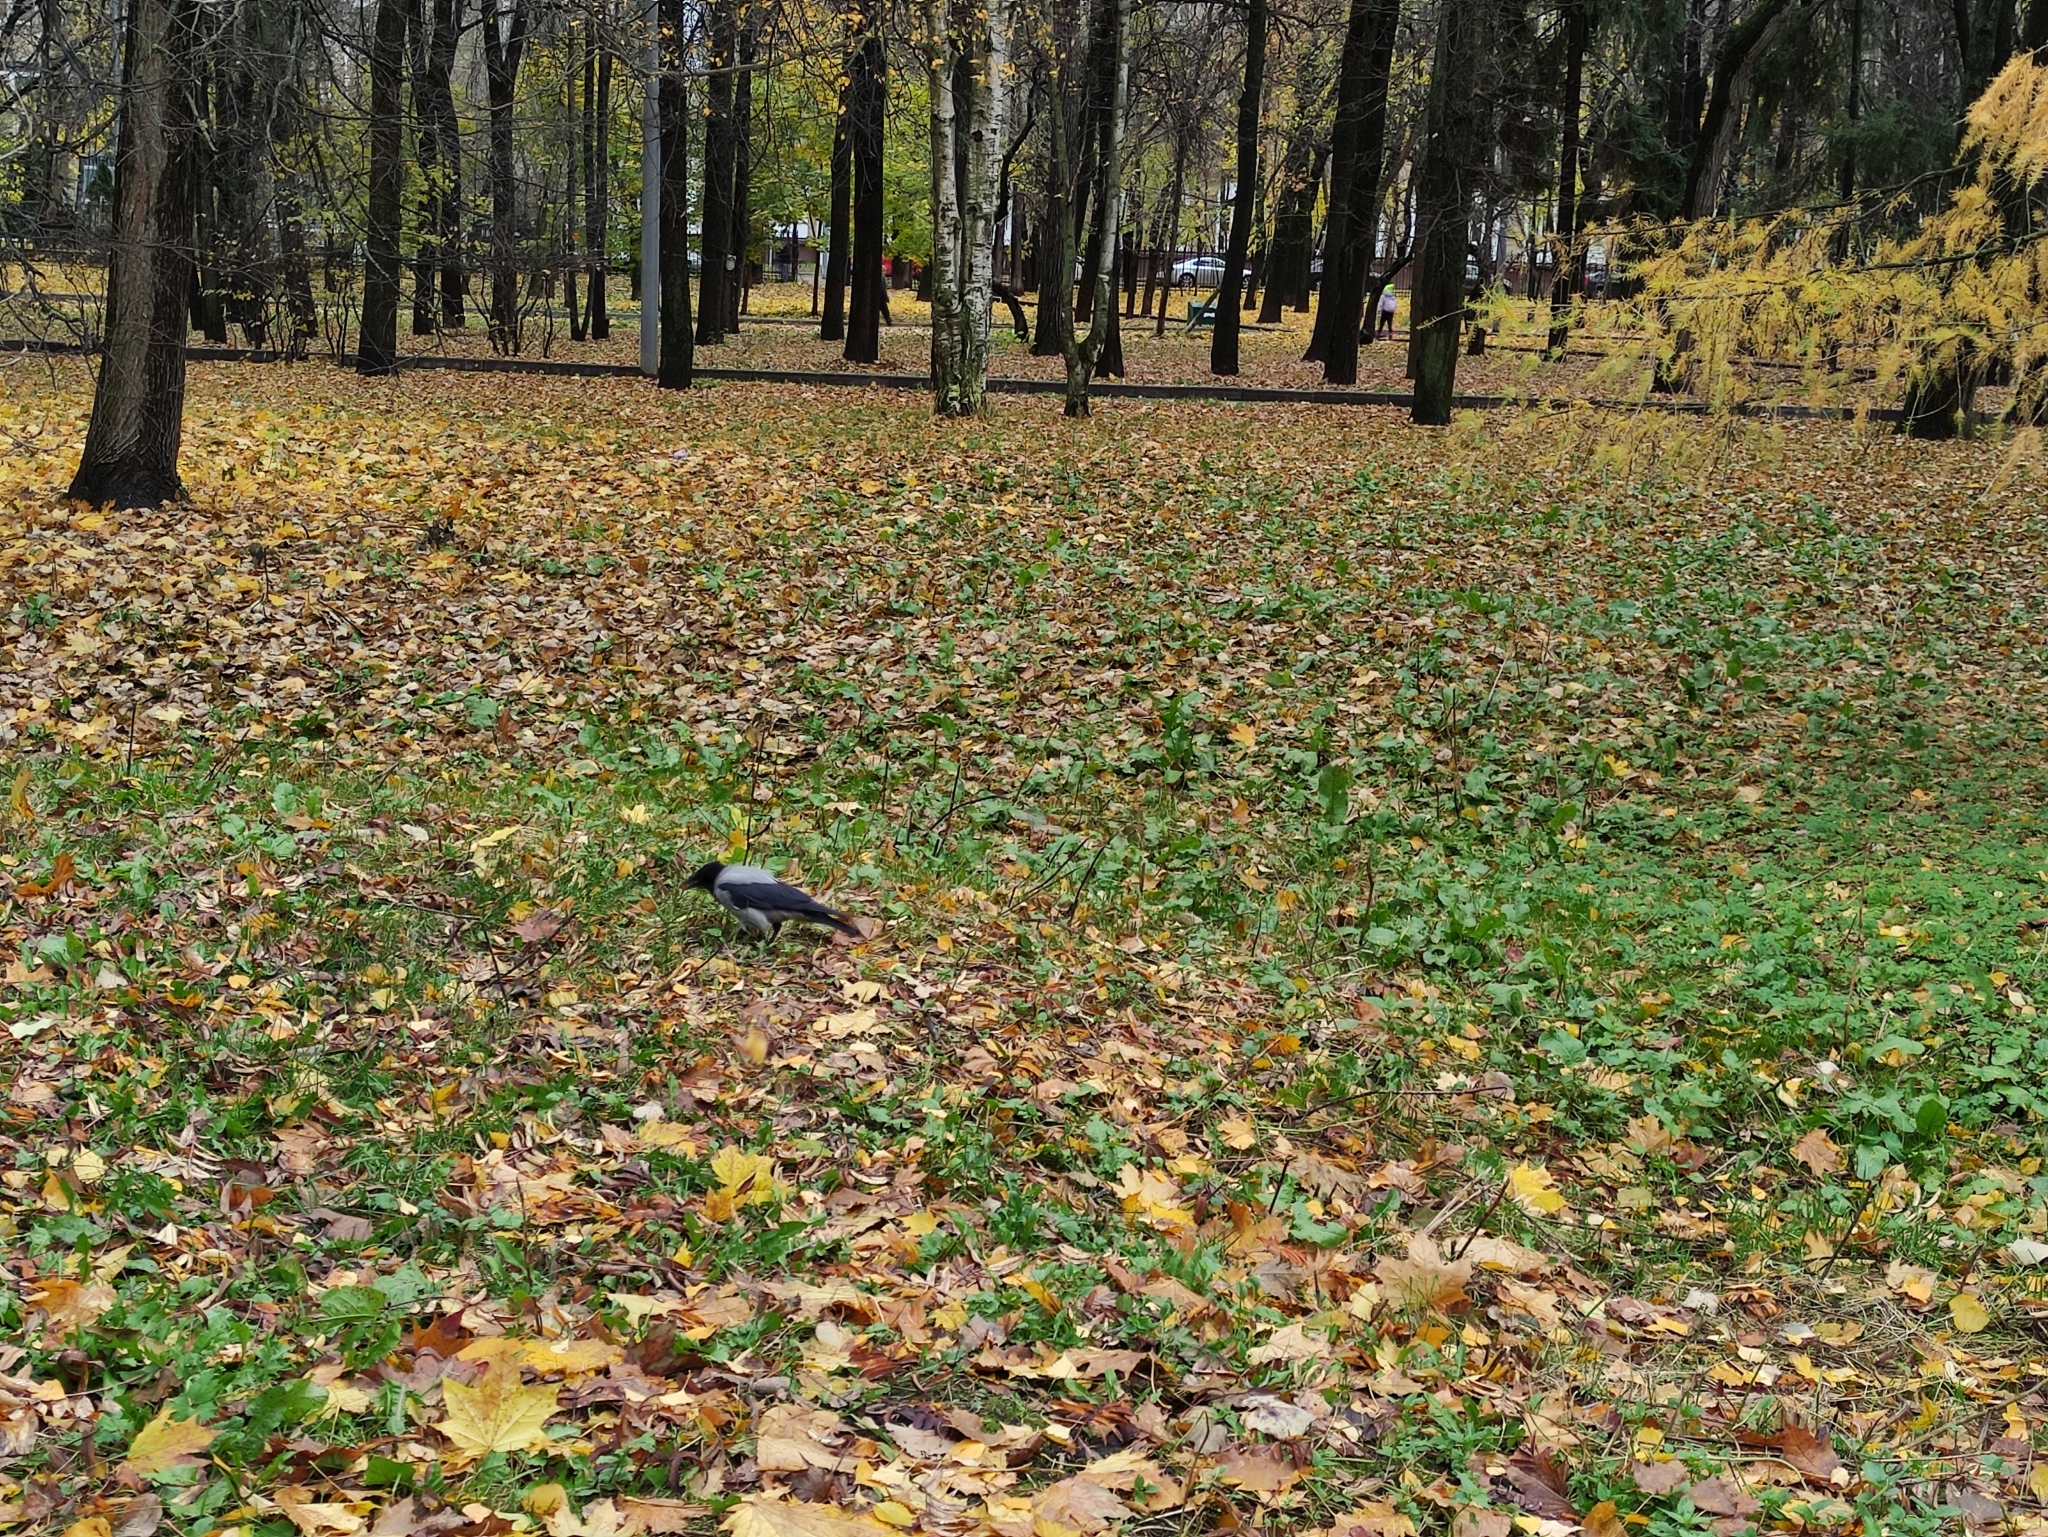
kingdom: Animalia
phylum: Chordata
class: Aves
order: Passeriformes
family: Corvidae
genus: Corvus
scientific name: Corvus cornix
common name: Hooded crow
